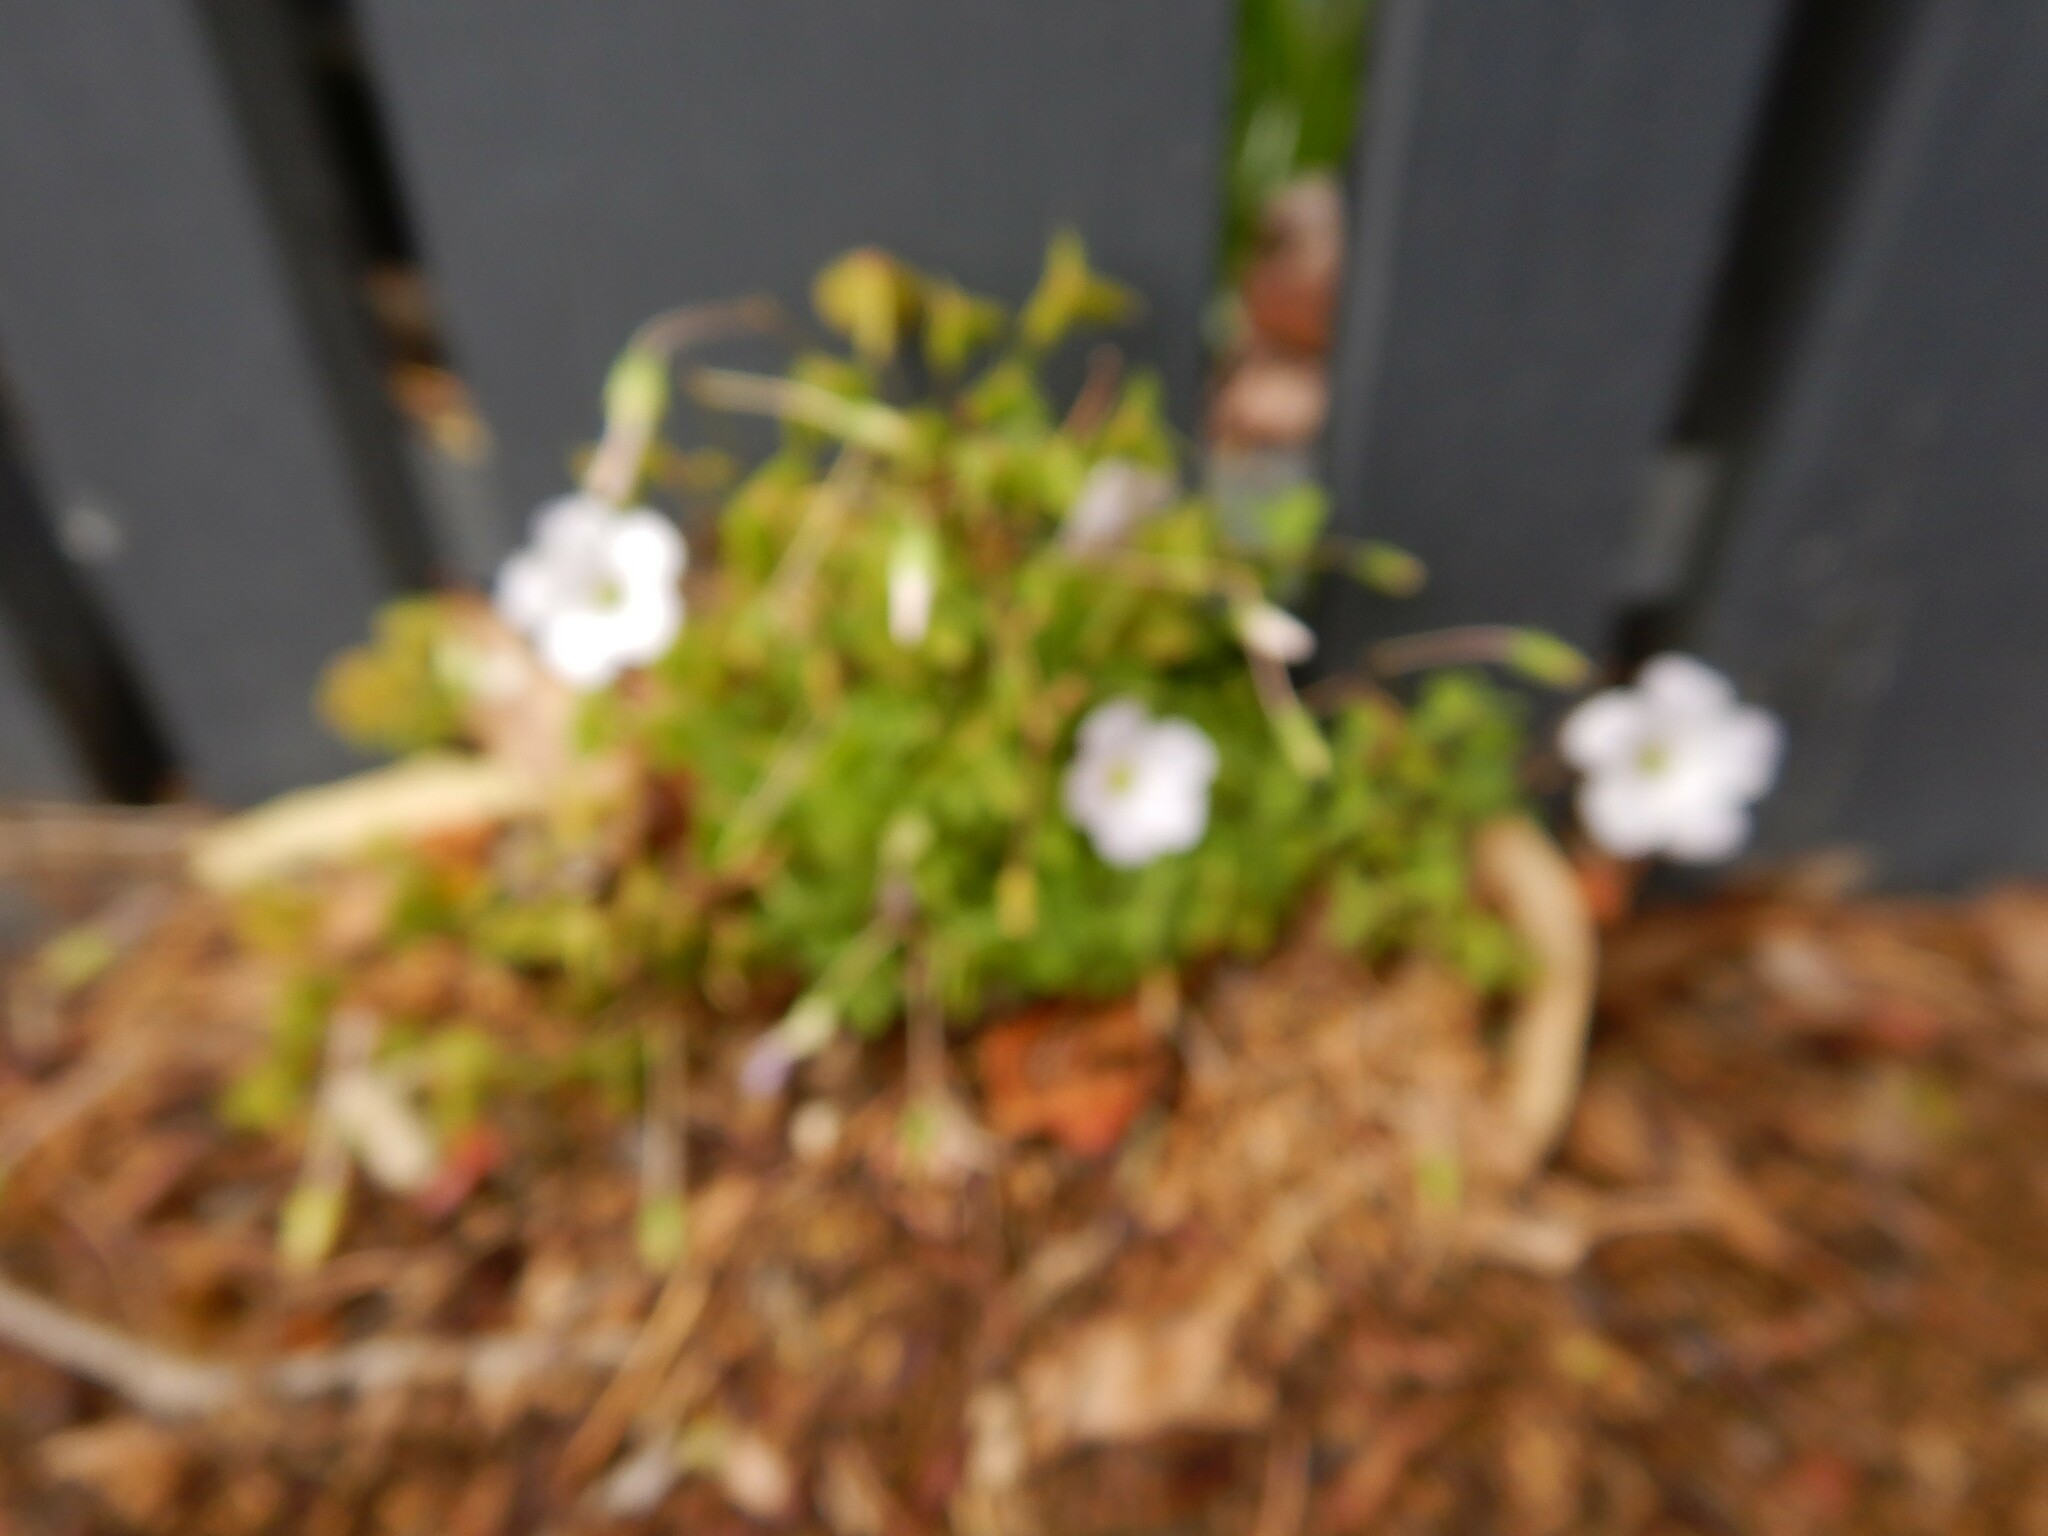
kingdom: Plantae
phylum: Tracheophyta
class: Magnoliopsida
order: Oxalidales
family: Oxalidaceae
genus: Oxalis
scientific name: Oxalis incarnata
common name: Pale pink-sorrel
